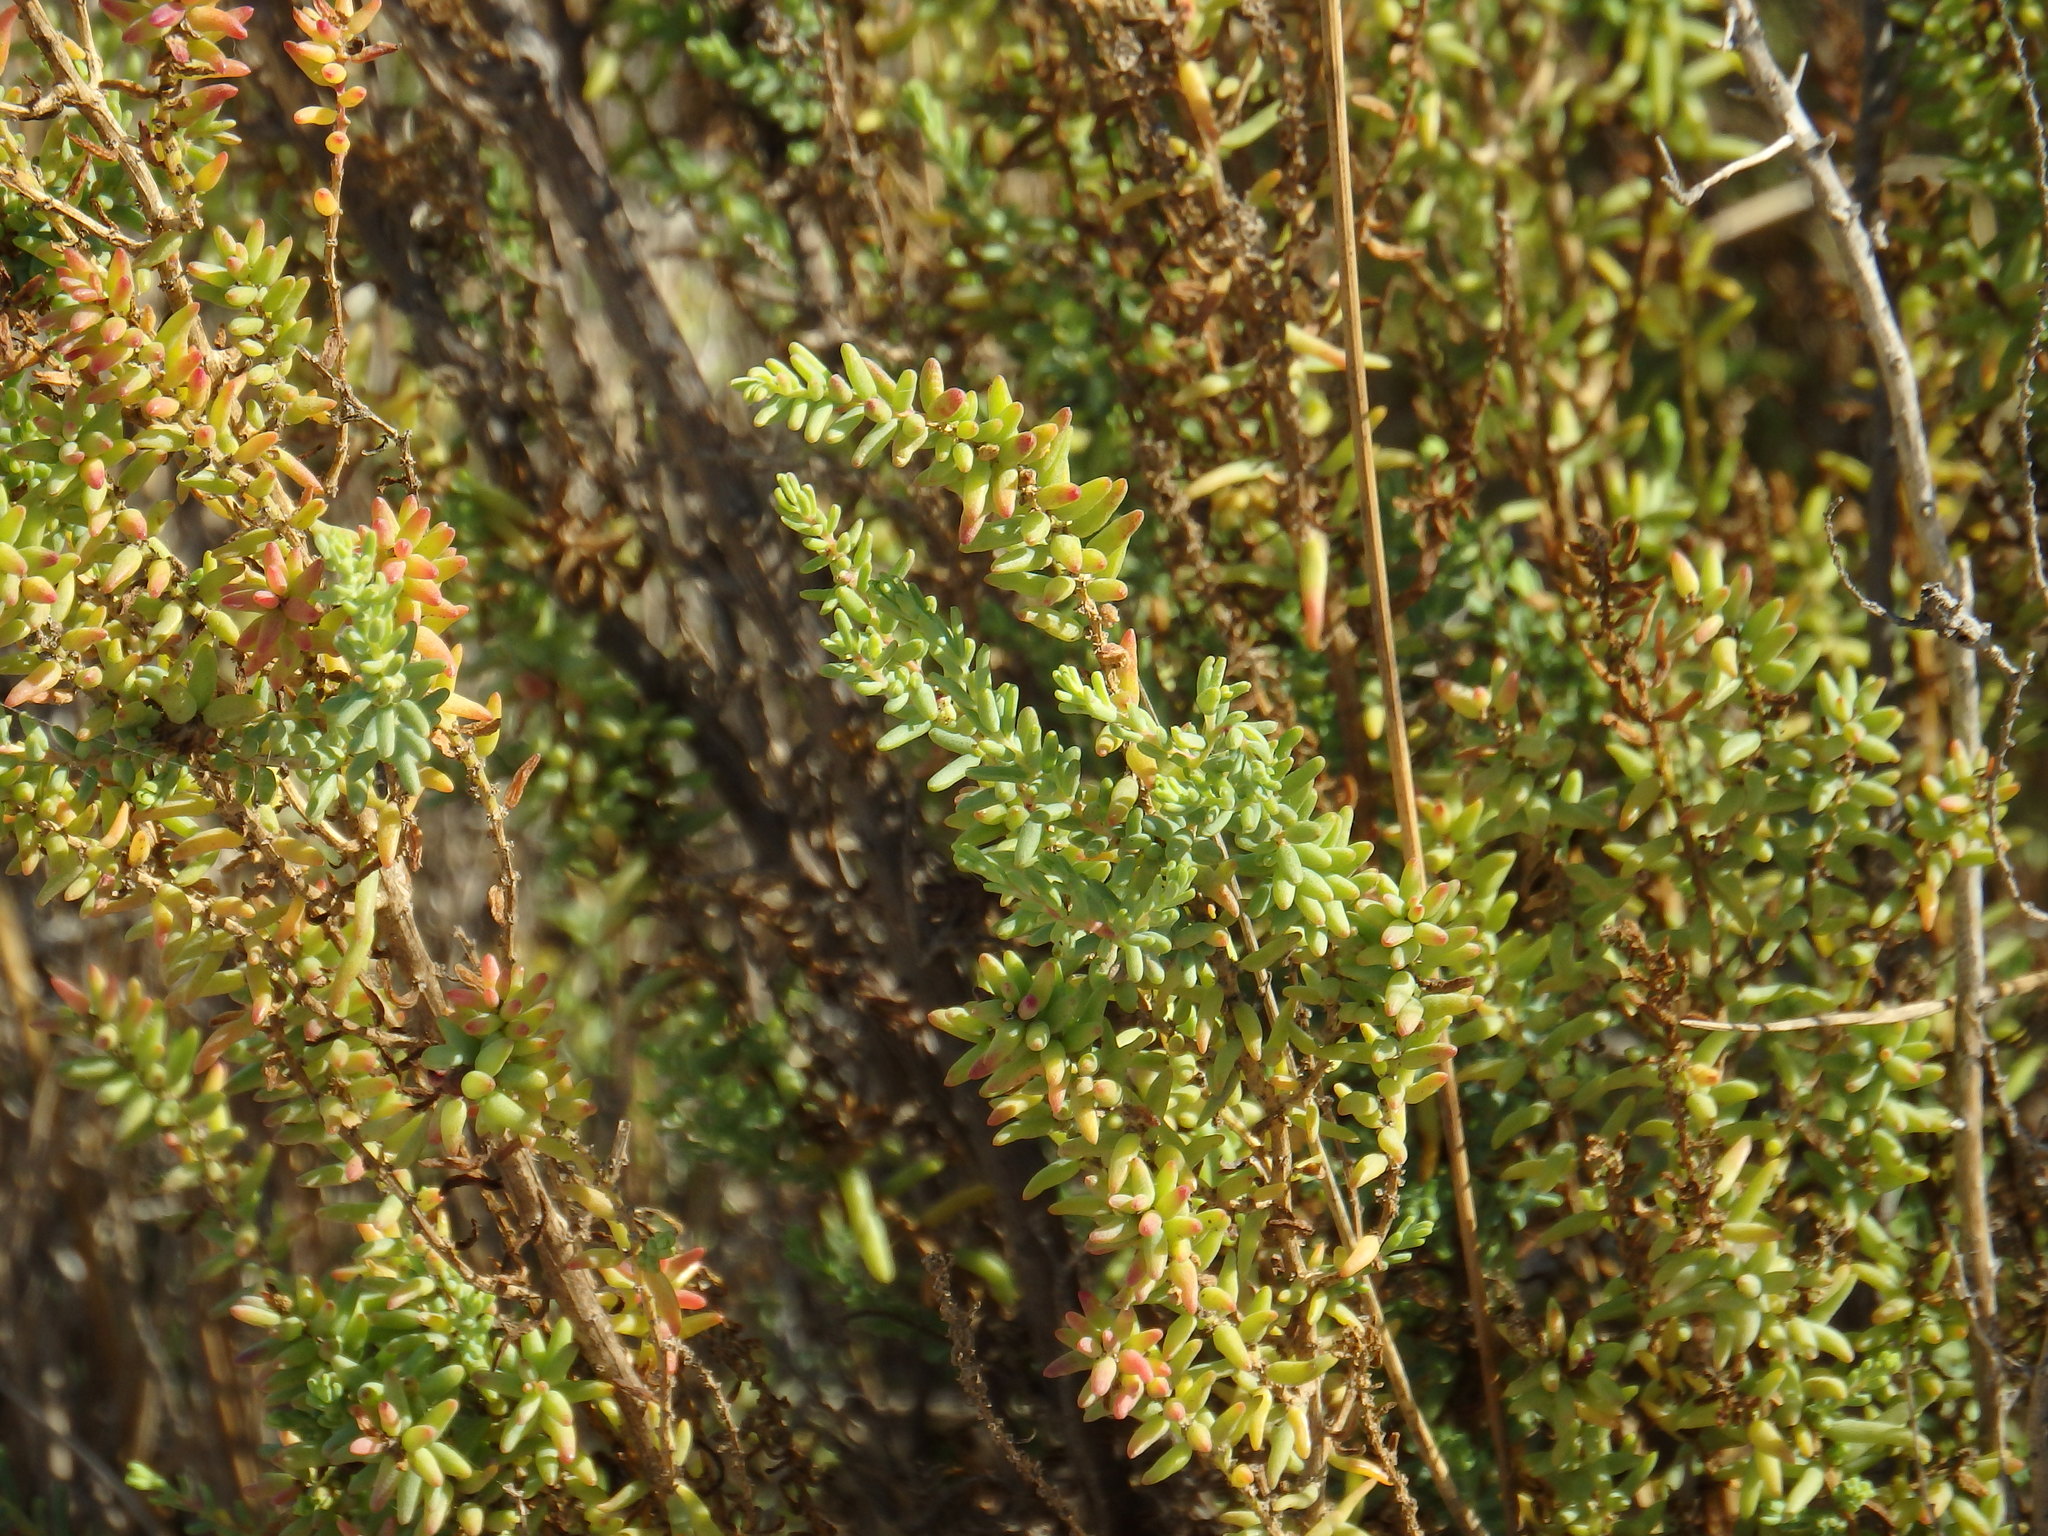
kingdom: Plantae
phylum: Tracheophyta
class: Magnoliopsida
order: Caryophyllales
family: Amaranthaceae
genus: Suaeda
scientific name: Suaeda vera
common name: Shrubby sea-blite
